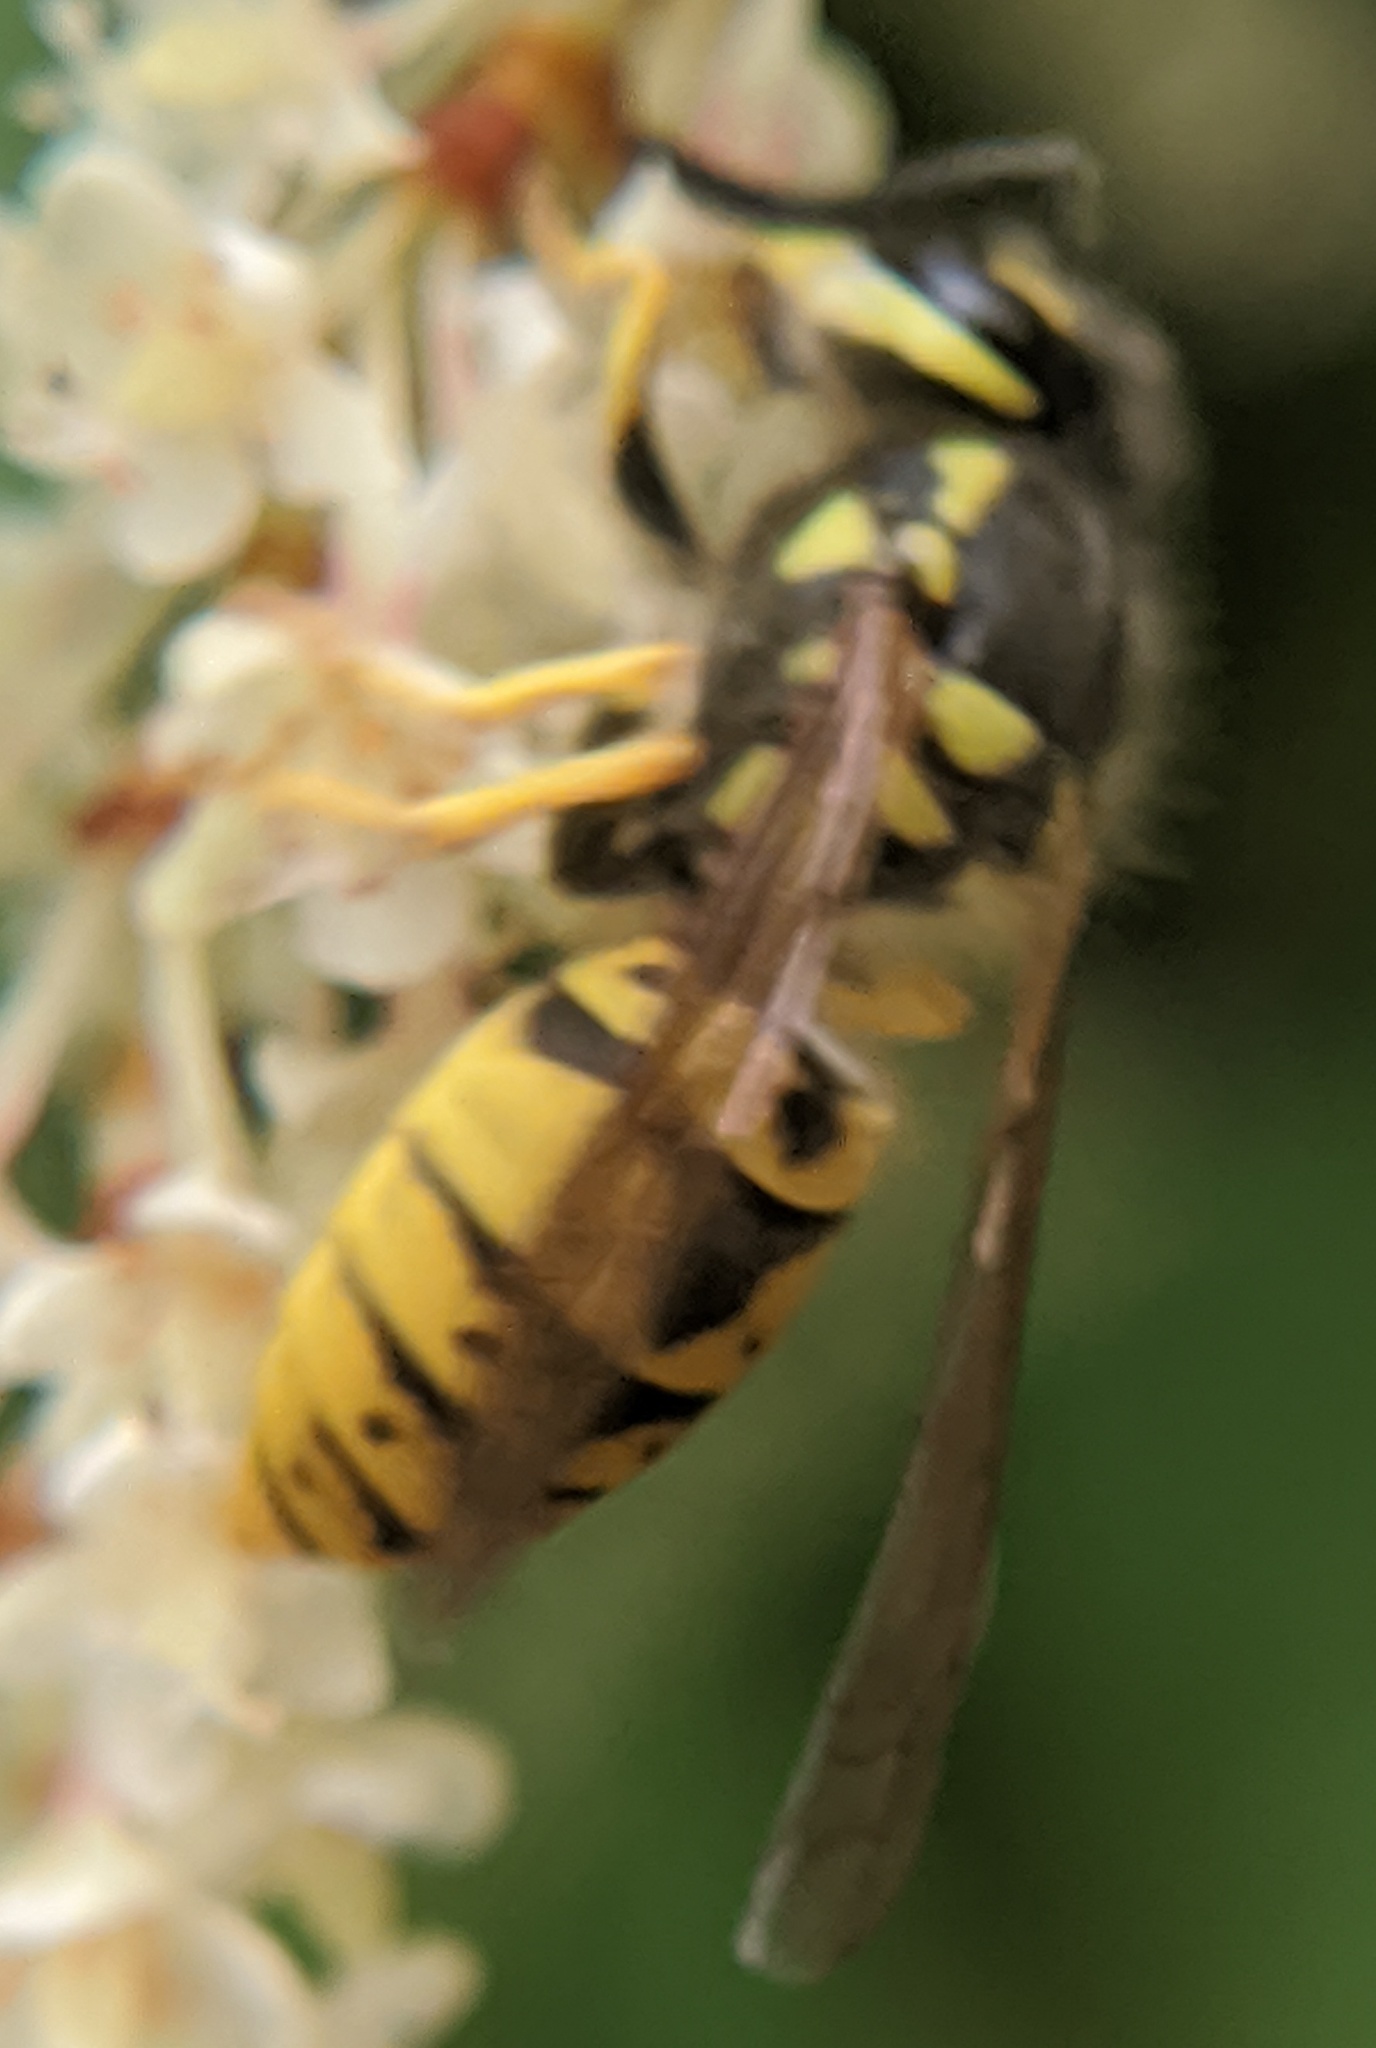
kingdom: Animalia
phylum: Arthropoda
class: Insecta
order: Hymenoptera
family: Vespidae
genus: Vespula
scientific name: Vespula germanica
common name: German wasp
